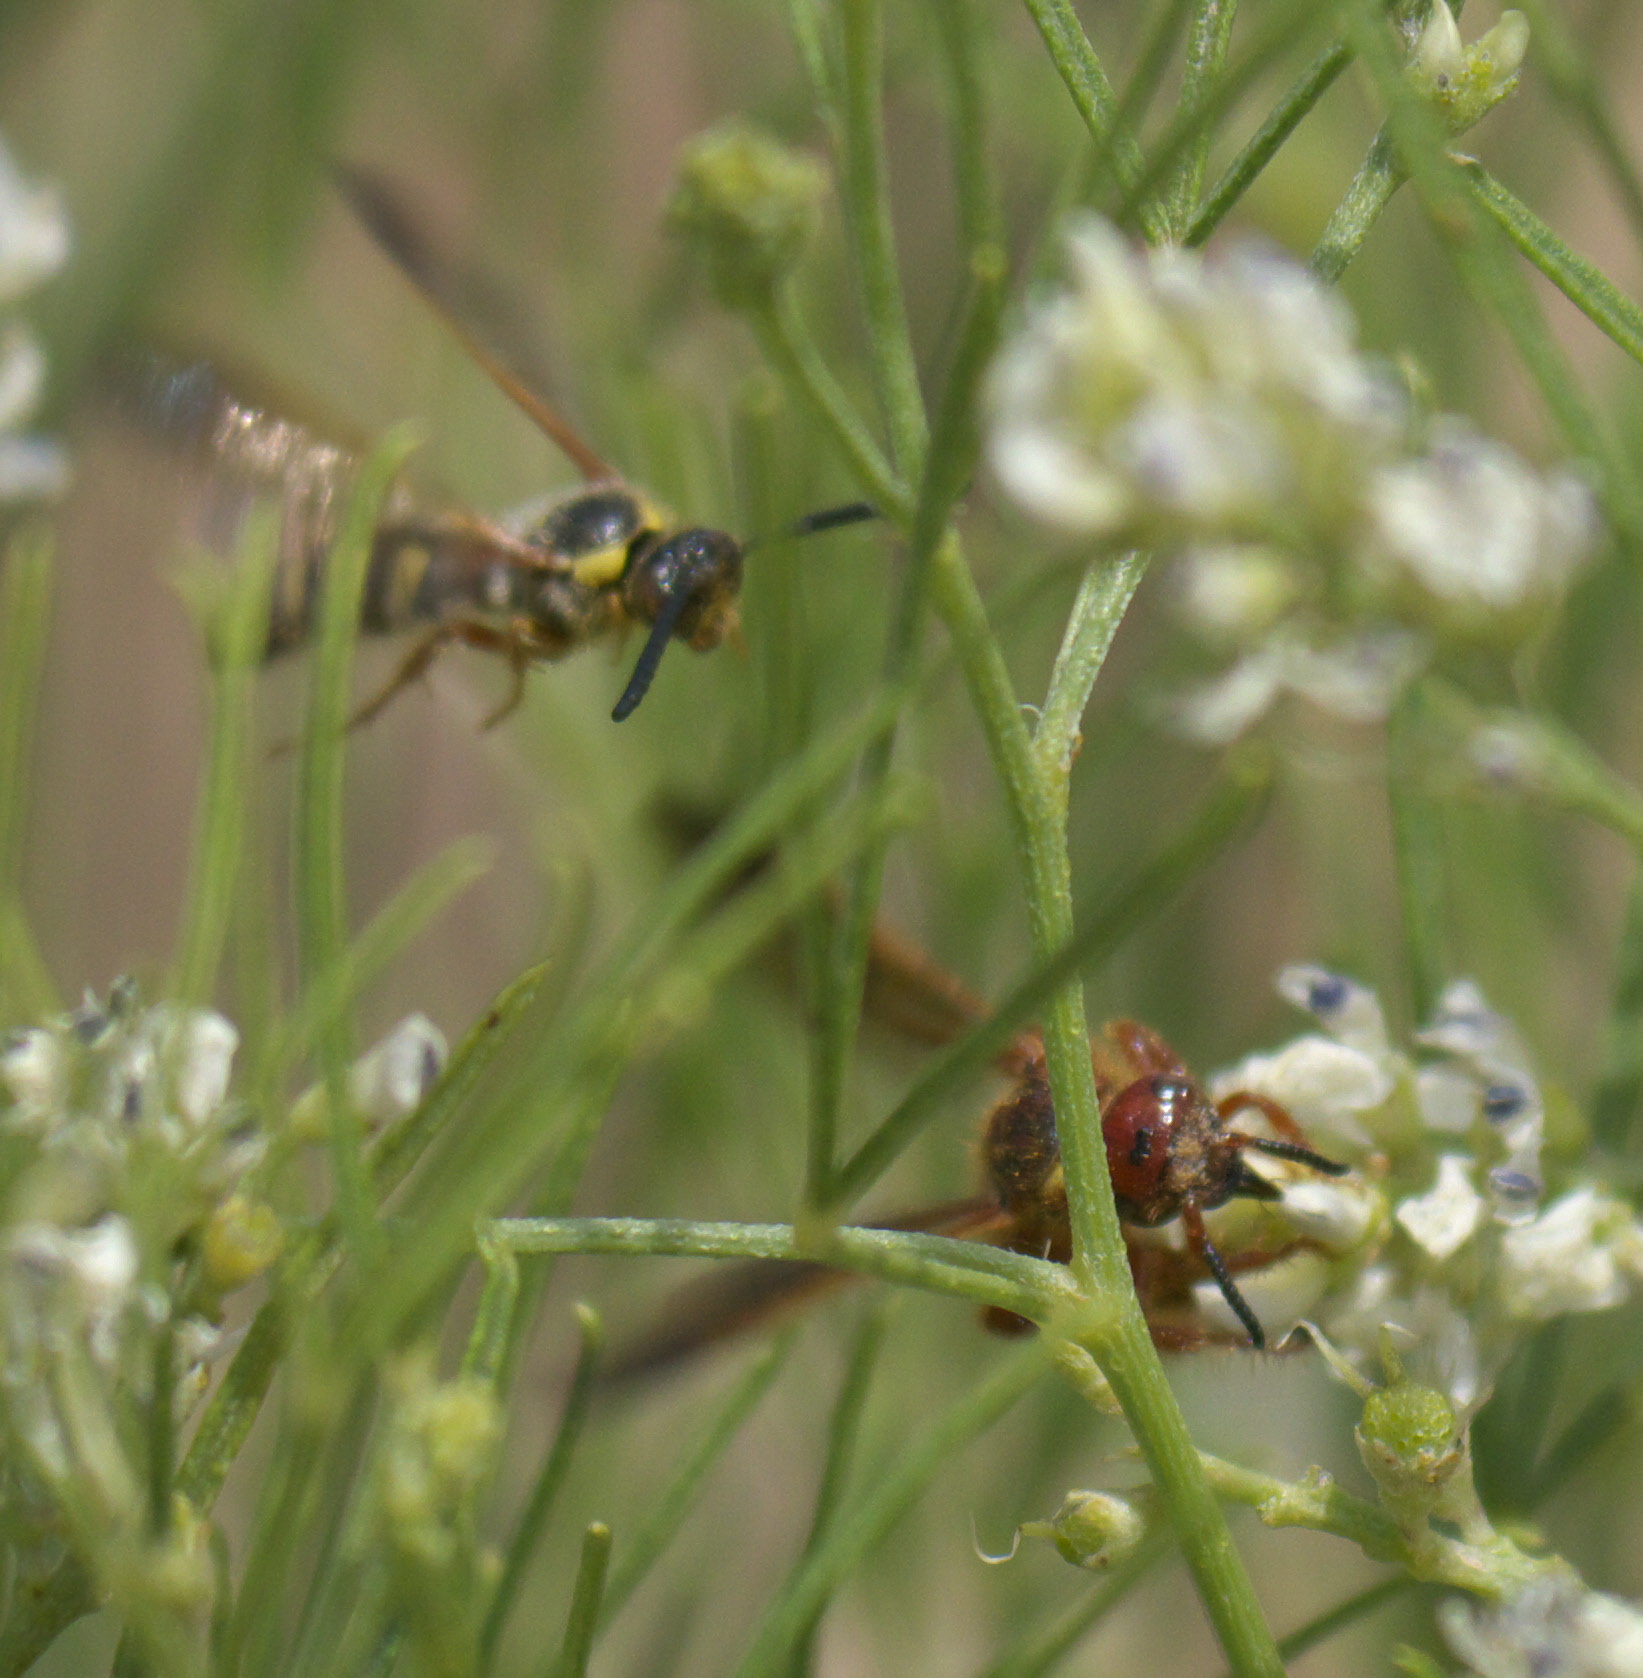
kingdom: Animalia
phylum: Arthropoda
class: Insecta
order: Hymenoptera
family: Scoliidae
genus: Colpa
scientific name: Colpa octomaculata
